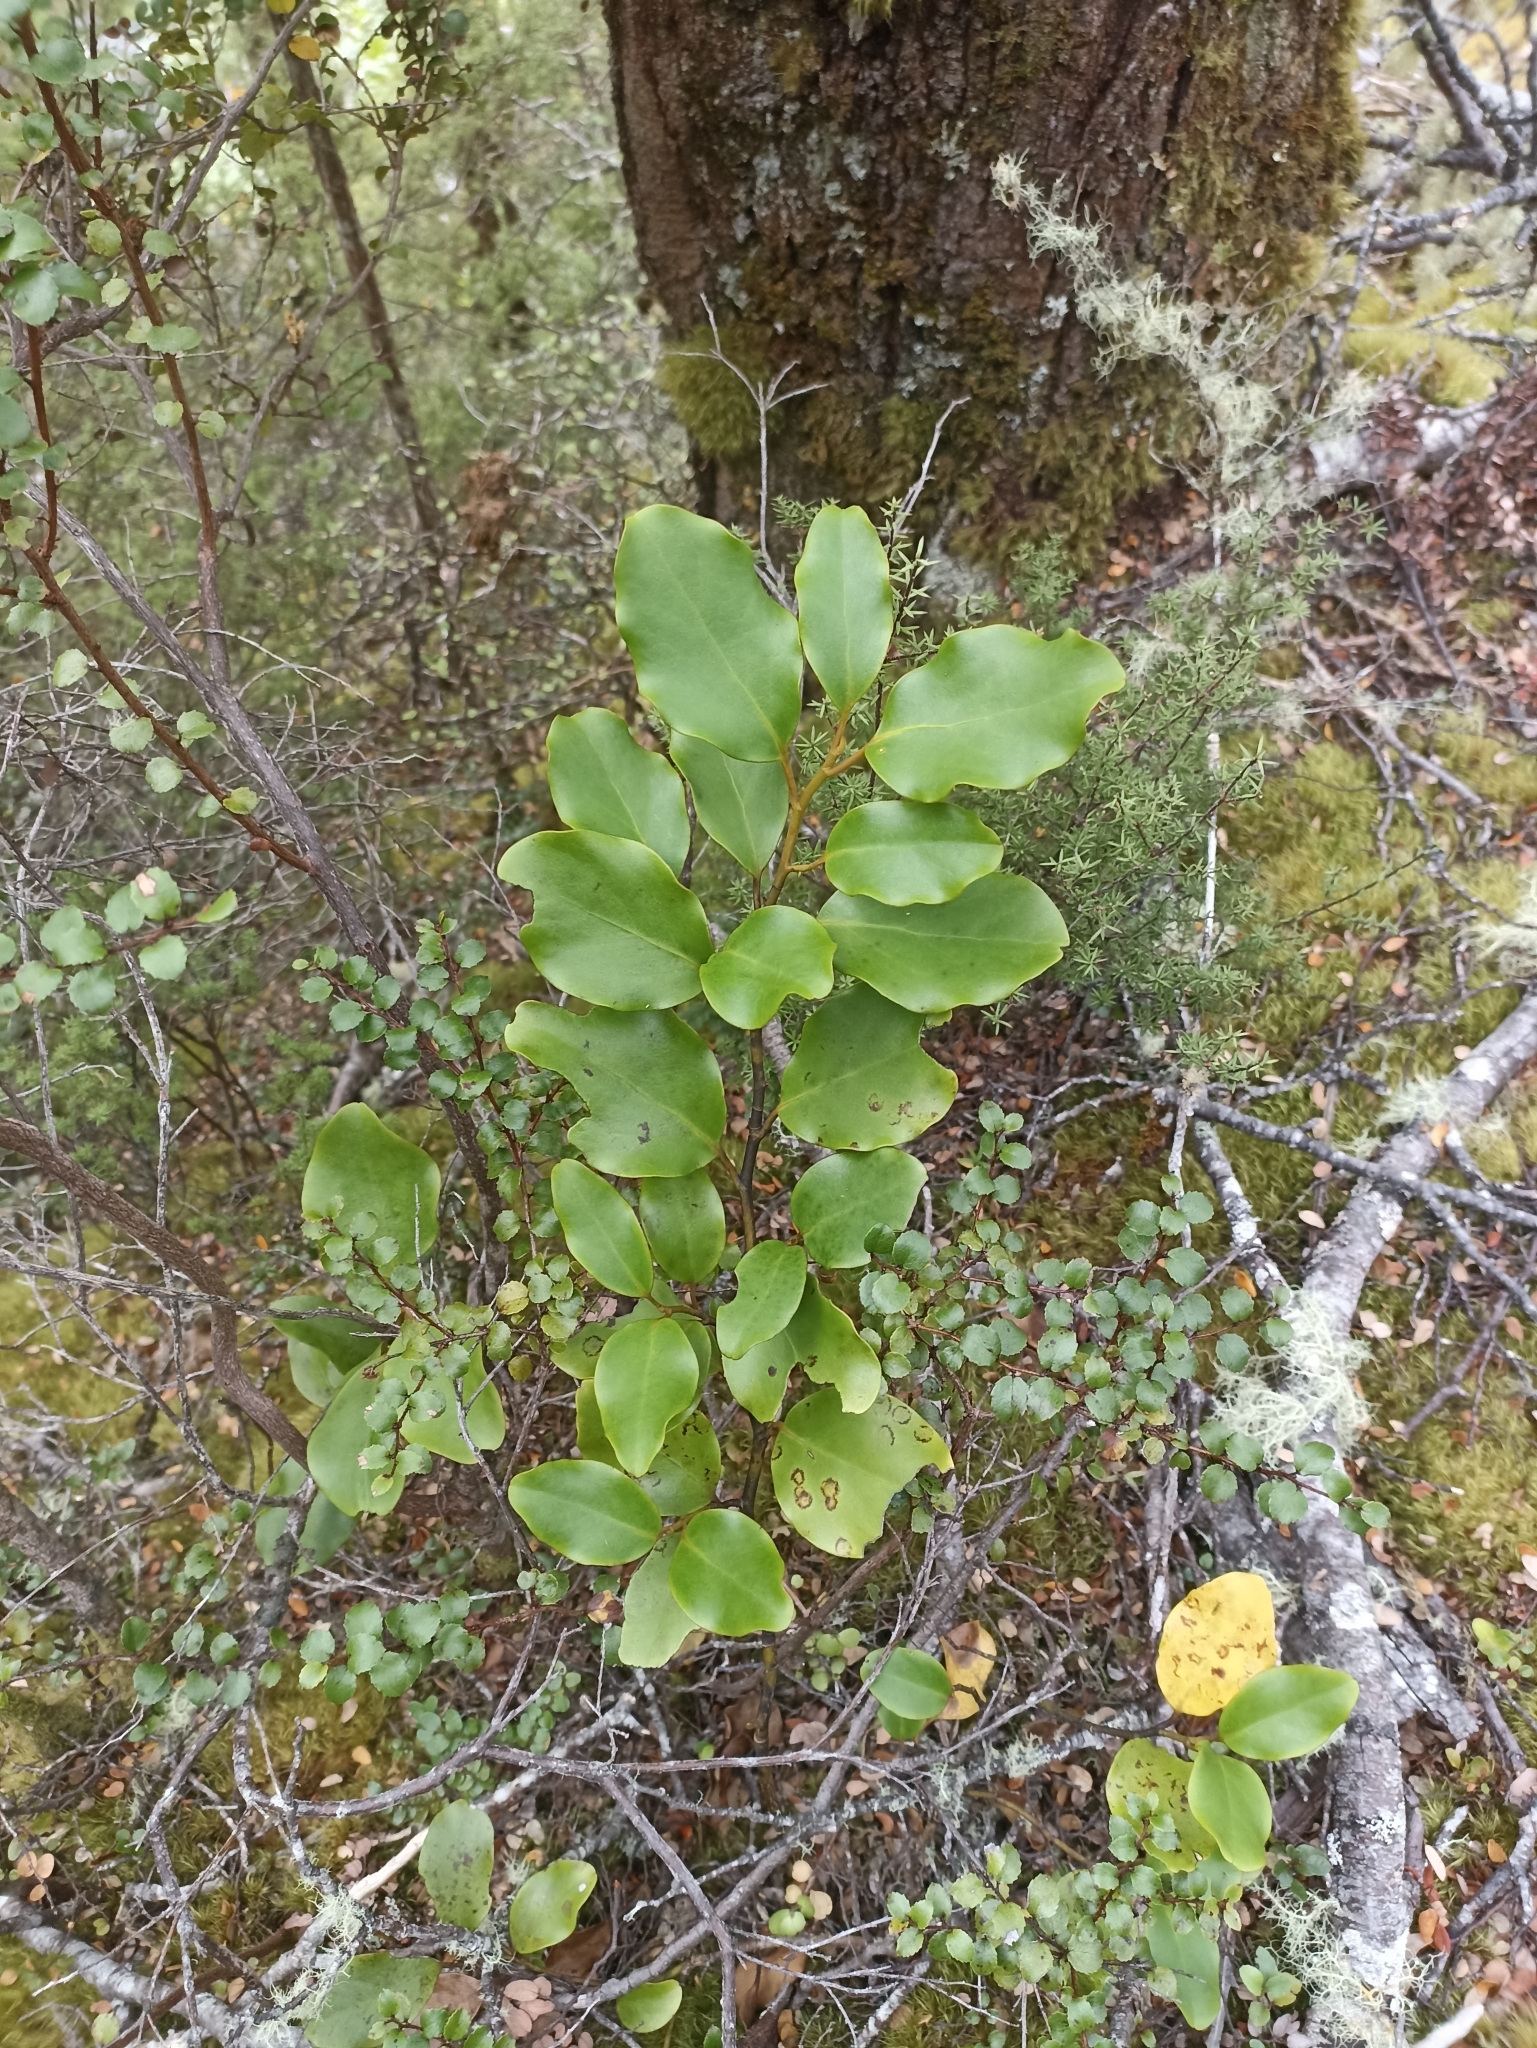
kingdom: Plantae
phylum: Tracheophyta
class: Magnoliopsida
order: Apiales
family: Griseliniaceae
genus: Griselinia
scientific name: Griselinia littoralis
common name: New zealand broadleaf
